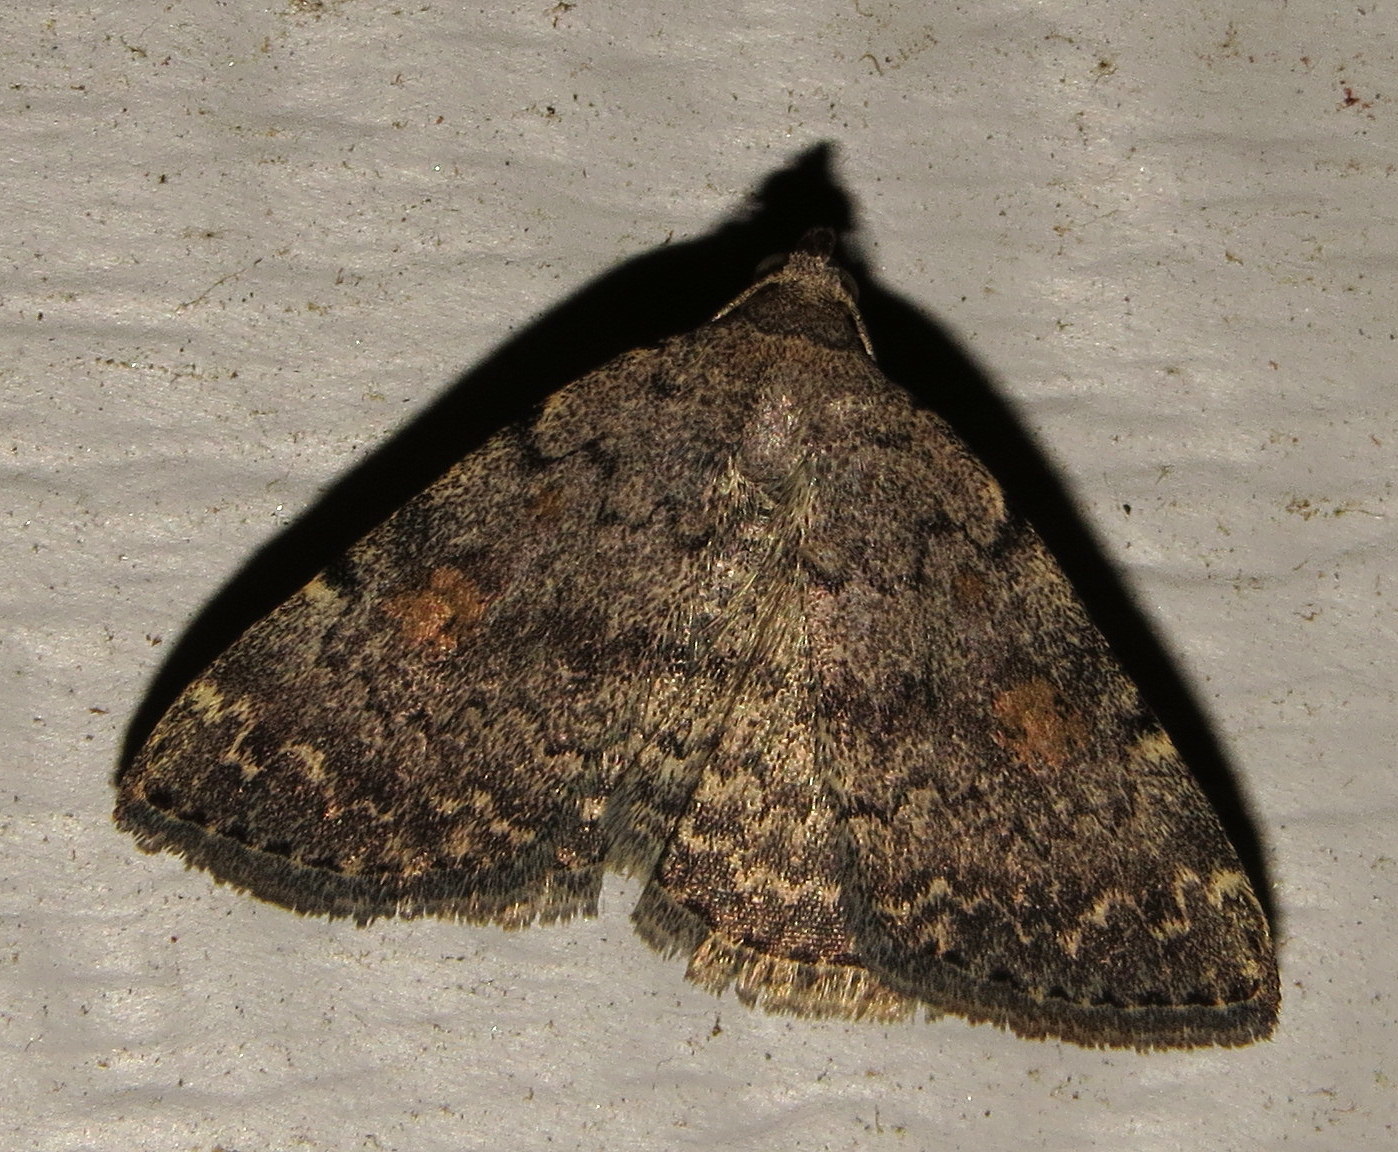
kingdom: Animalia
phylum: Arthropoda
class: Insecta
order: Lepidoptera
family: Erebidae
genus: Idia
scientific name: Idia aemula
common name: Common idia moth
